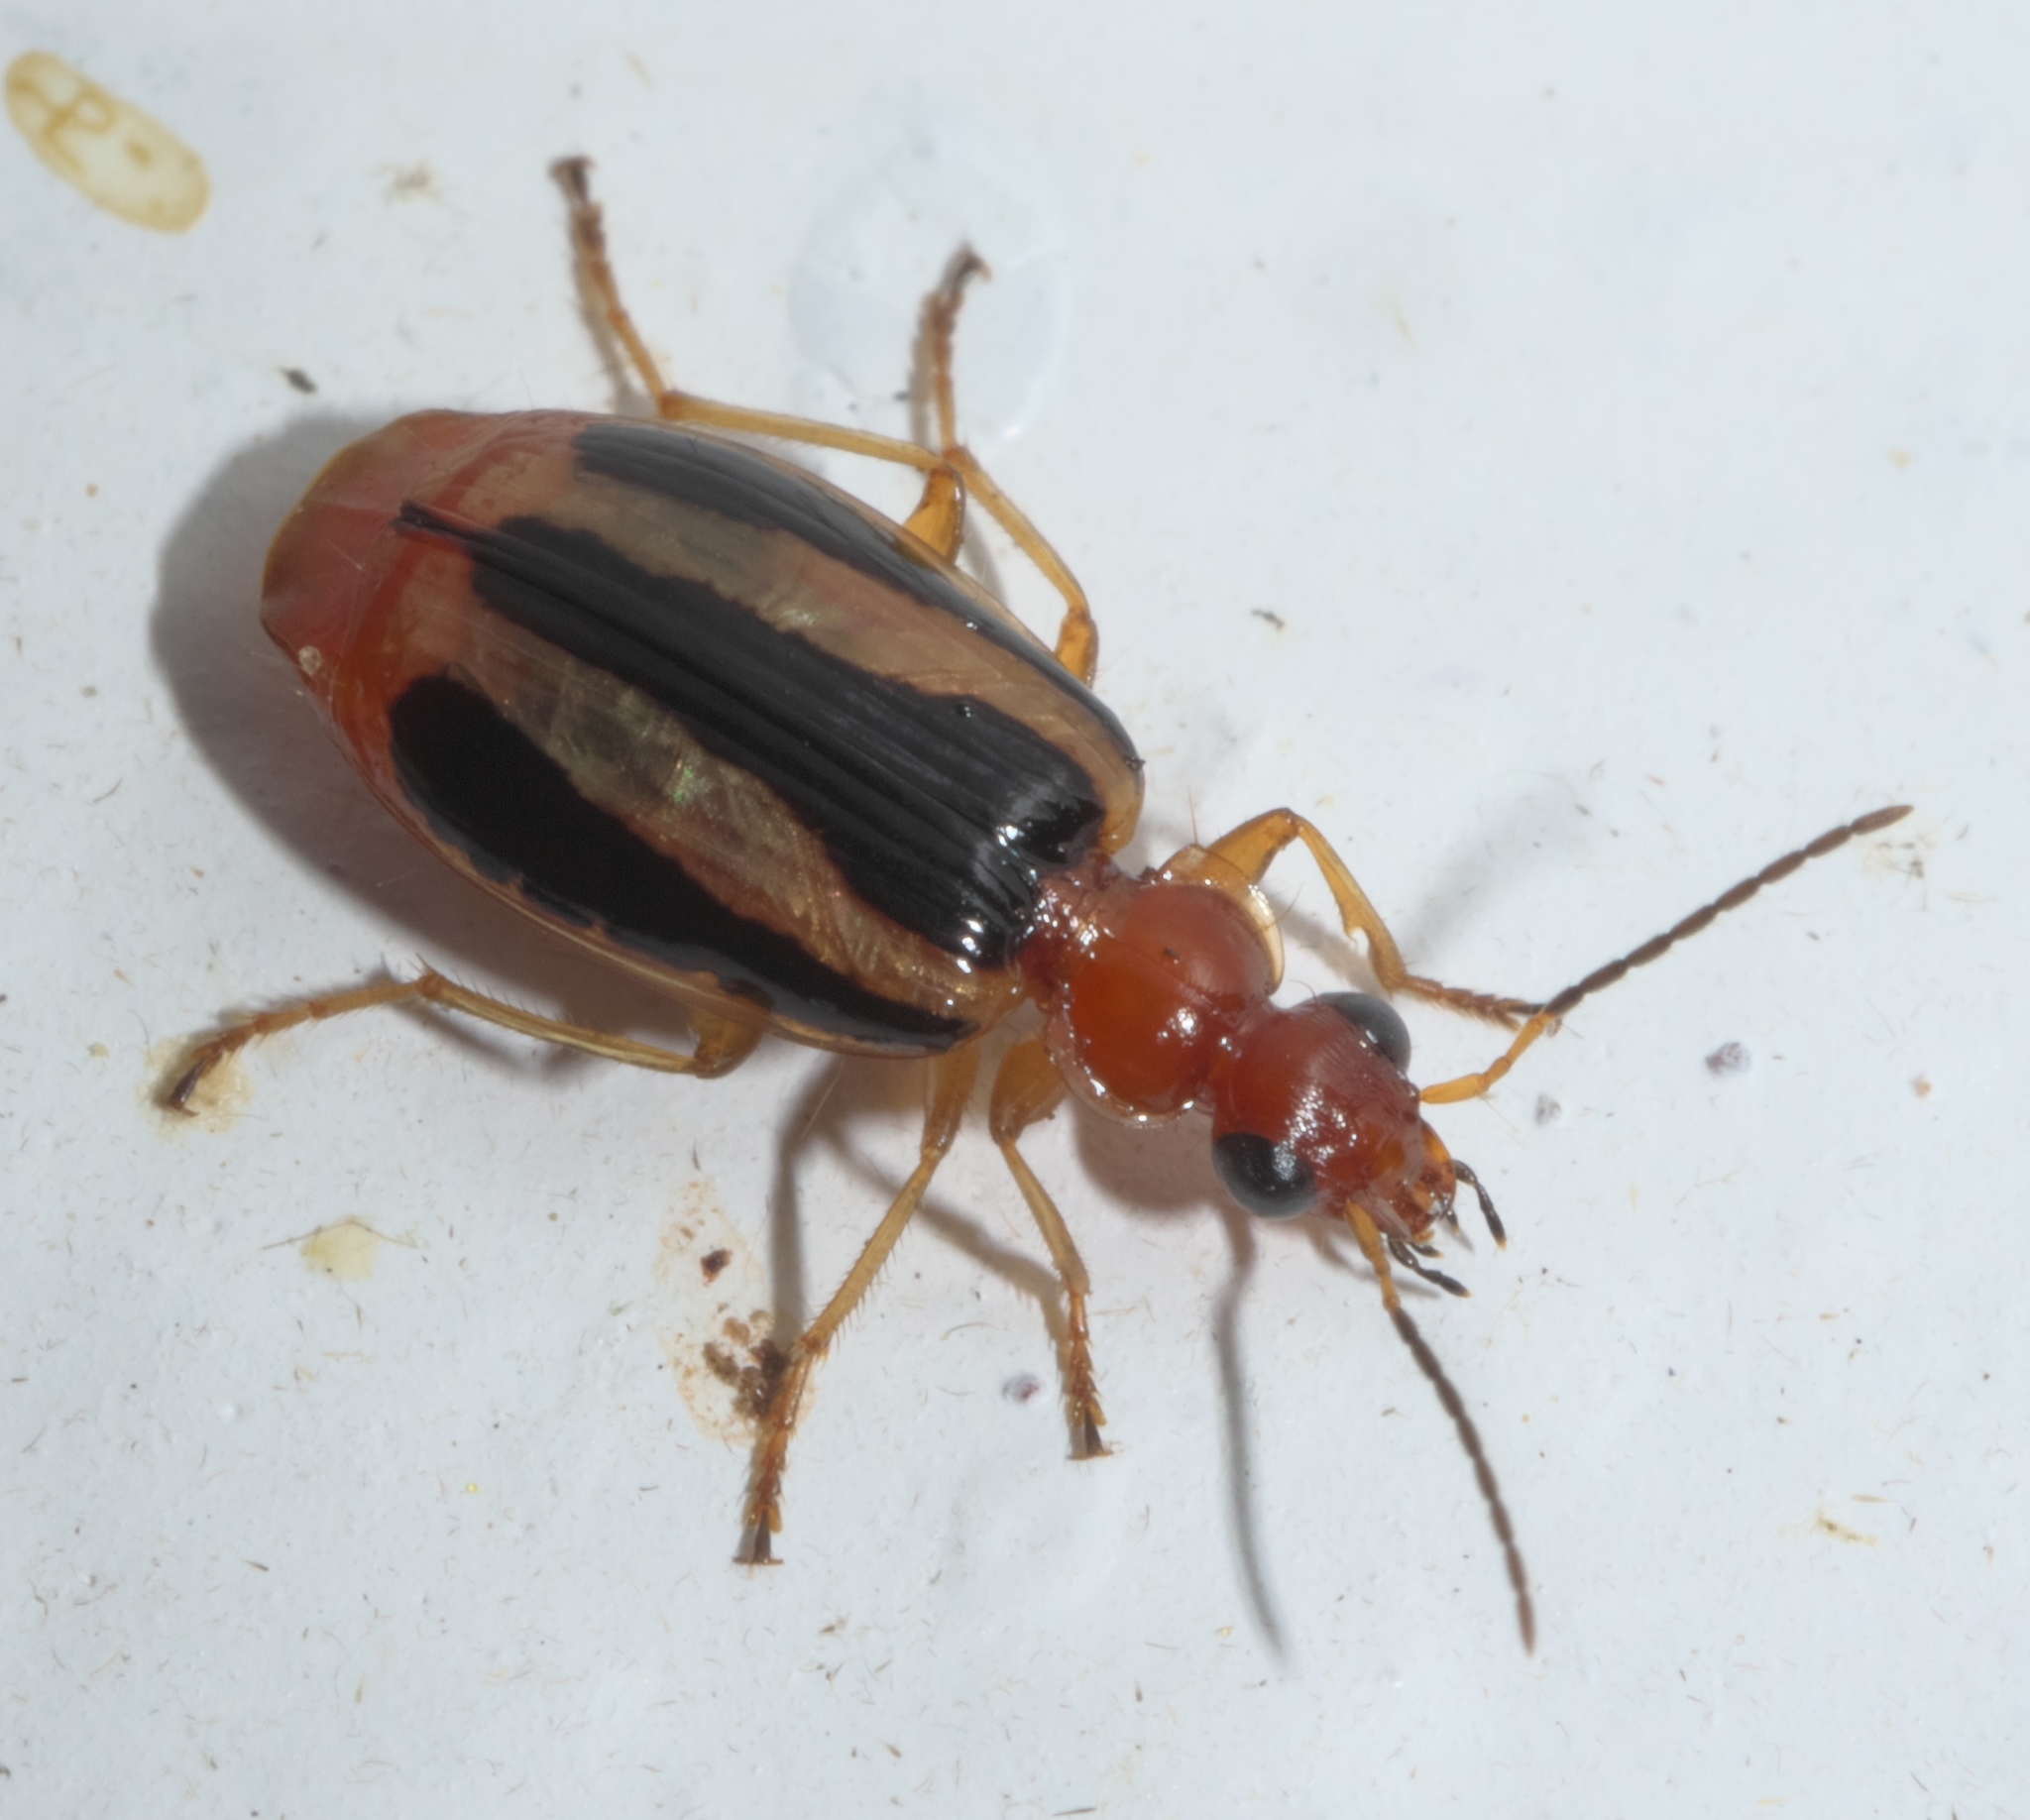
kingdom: Animalia
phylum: Arthropoda
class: Insecta
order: Coleoptera
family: Carabidae
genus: Lebia
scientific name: Lebia solea
